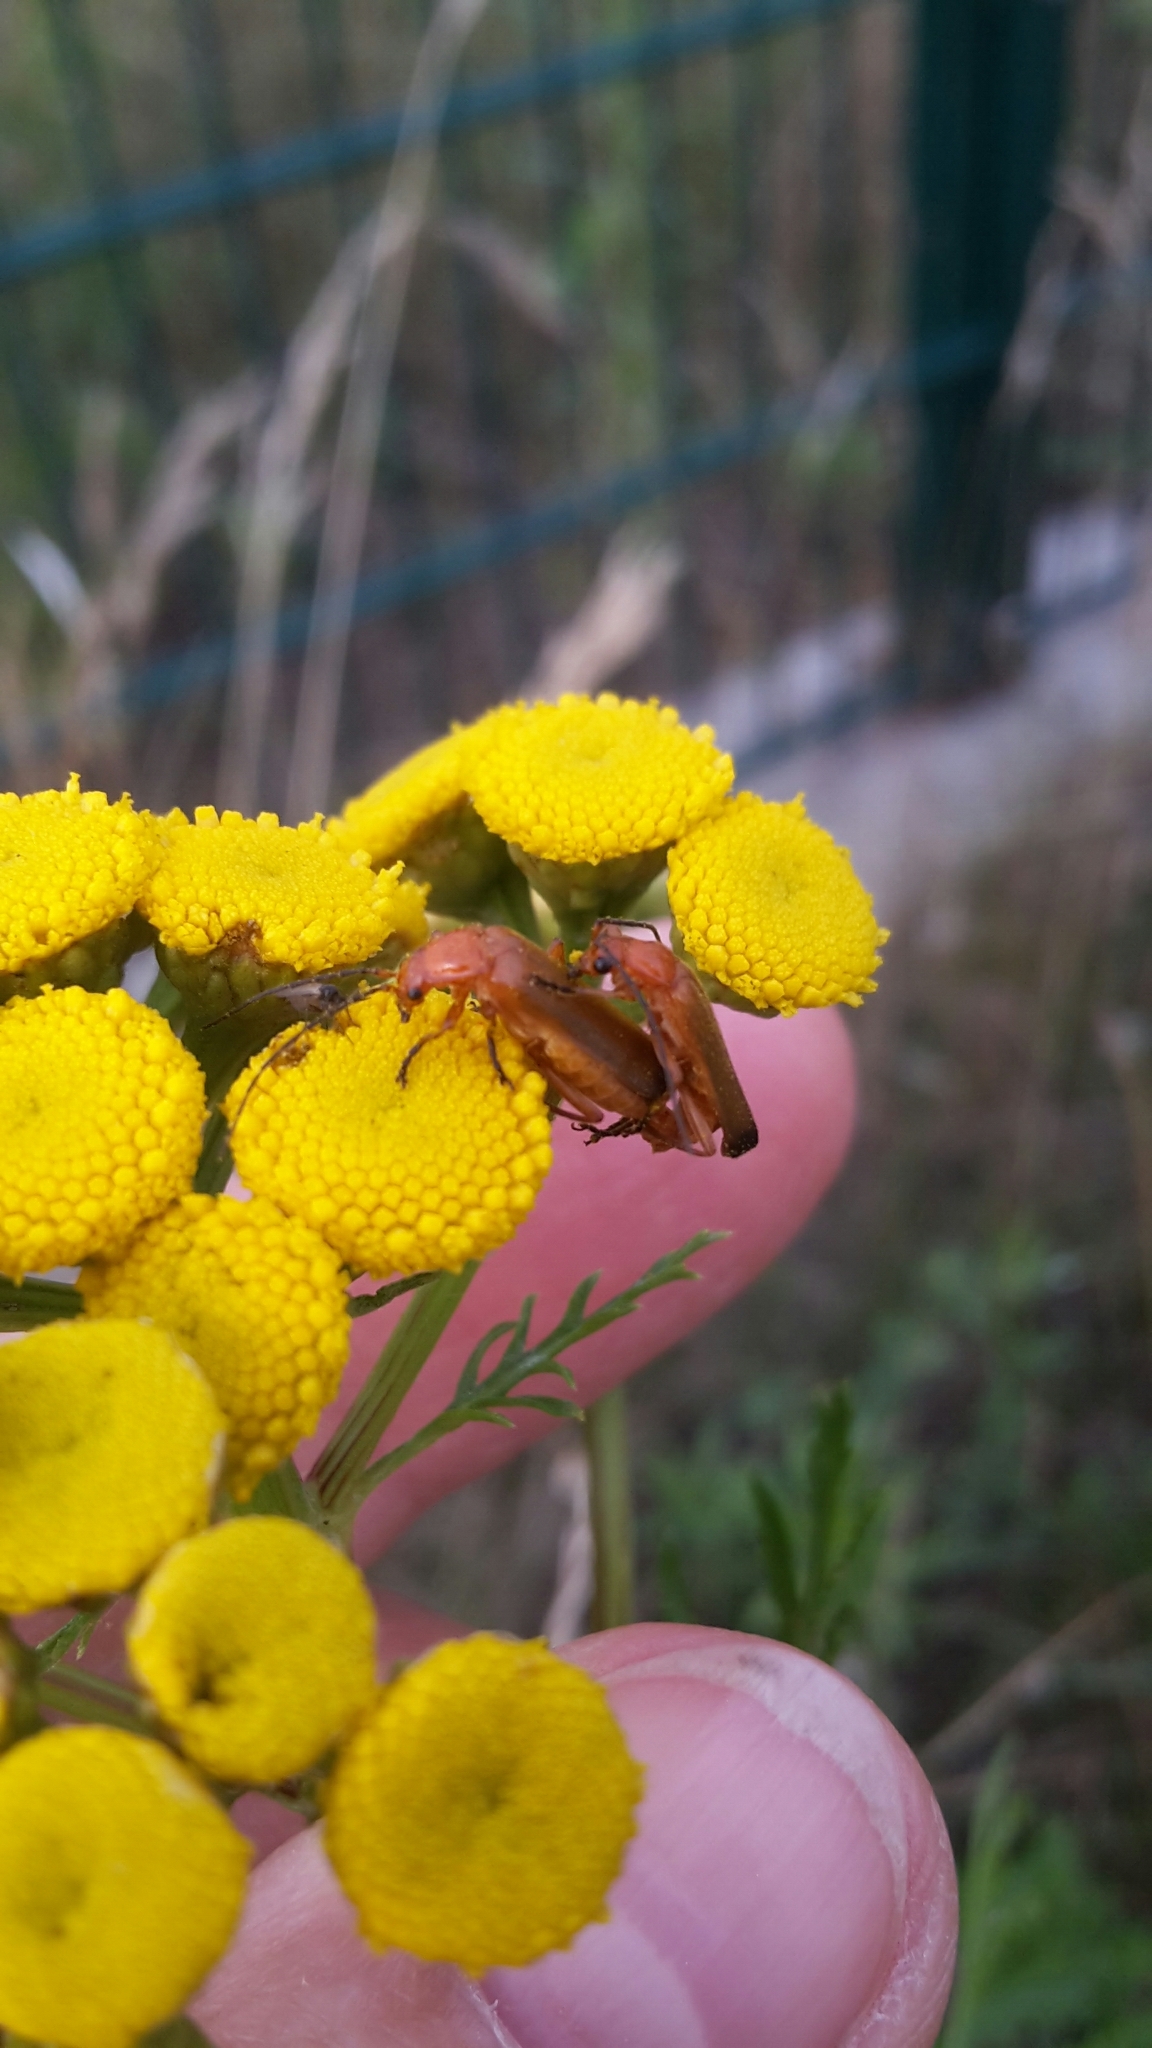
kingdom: Animalia
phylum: Arthropoda
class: Insecta
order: Coleoptera
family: Cantharidae
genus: Rhagonycha
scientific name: Rhagonycha fulva
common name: Common red soldier beetle
